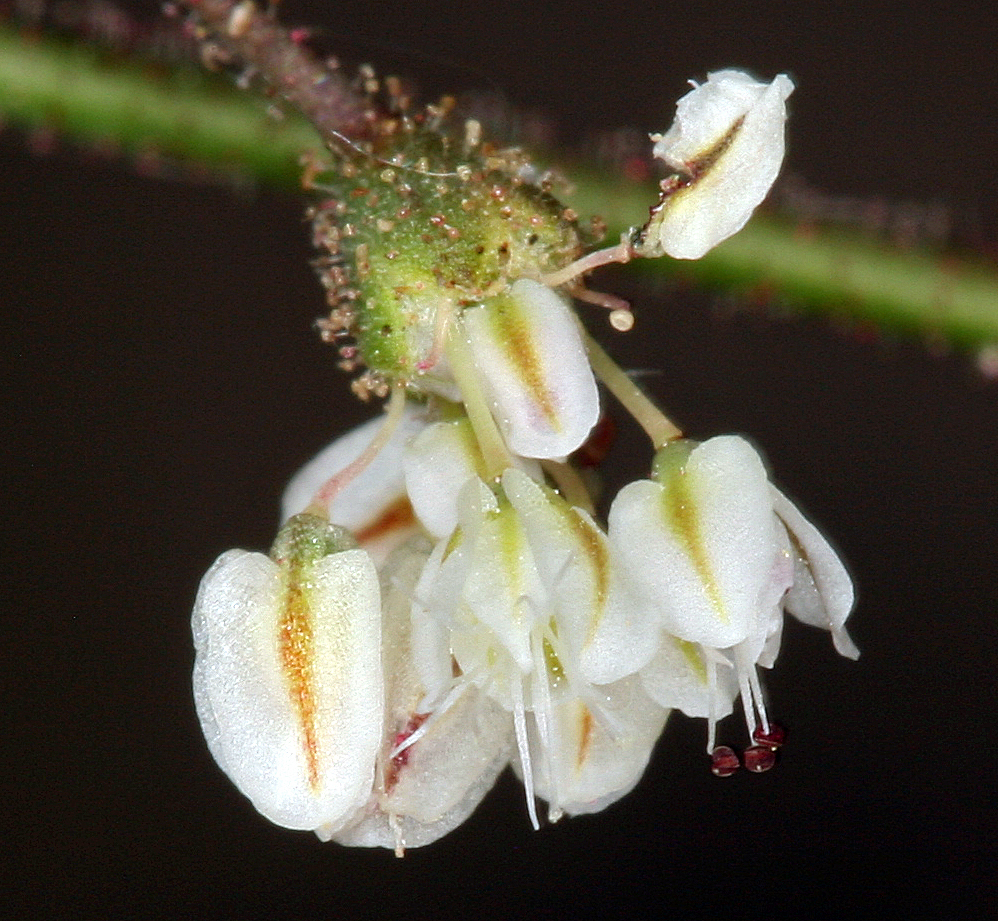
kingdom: Plantae
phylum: Tracheophyta
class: Magnoliopsida
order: Caryophyllales
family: Polygonaceae
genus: Eriogonum
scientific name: Eriogonum brachypodum
